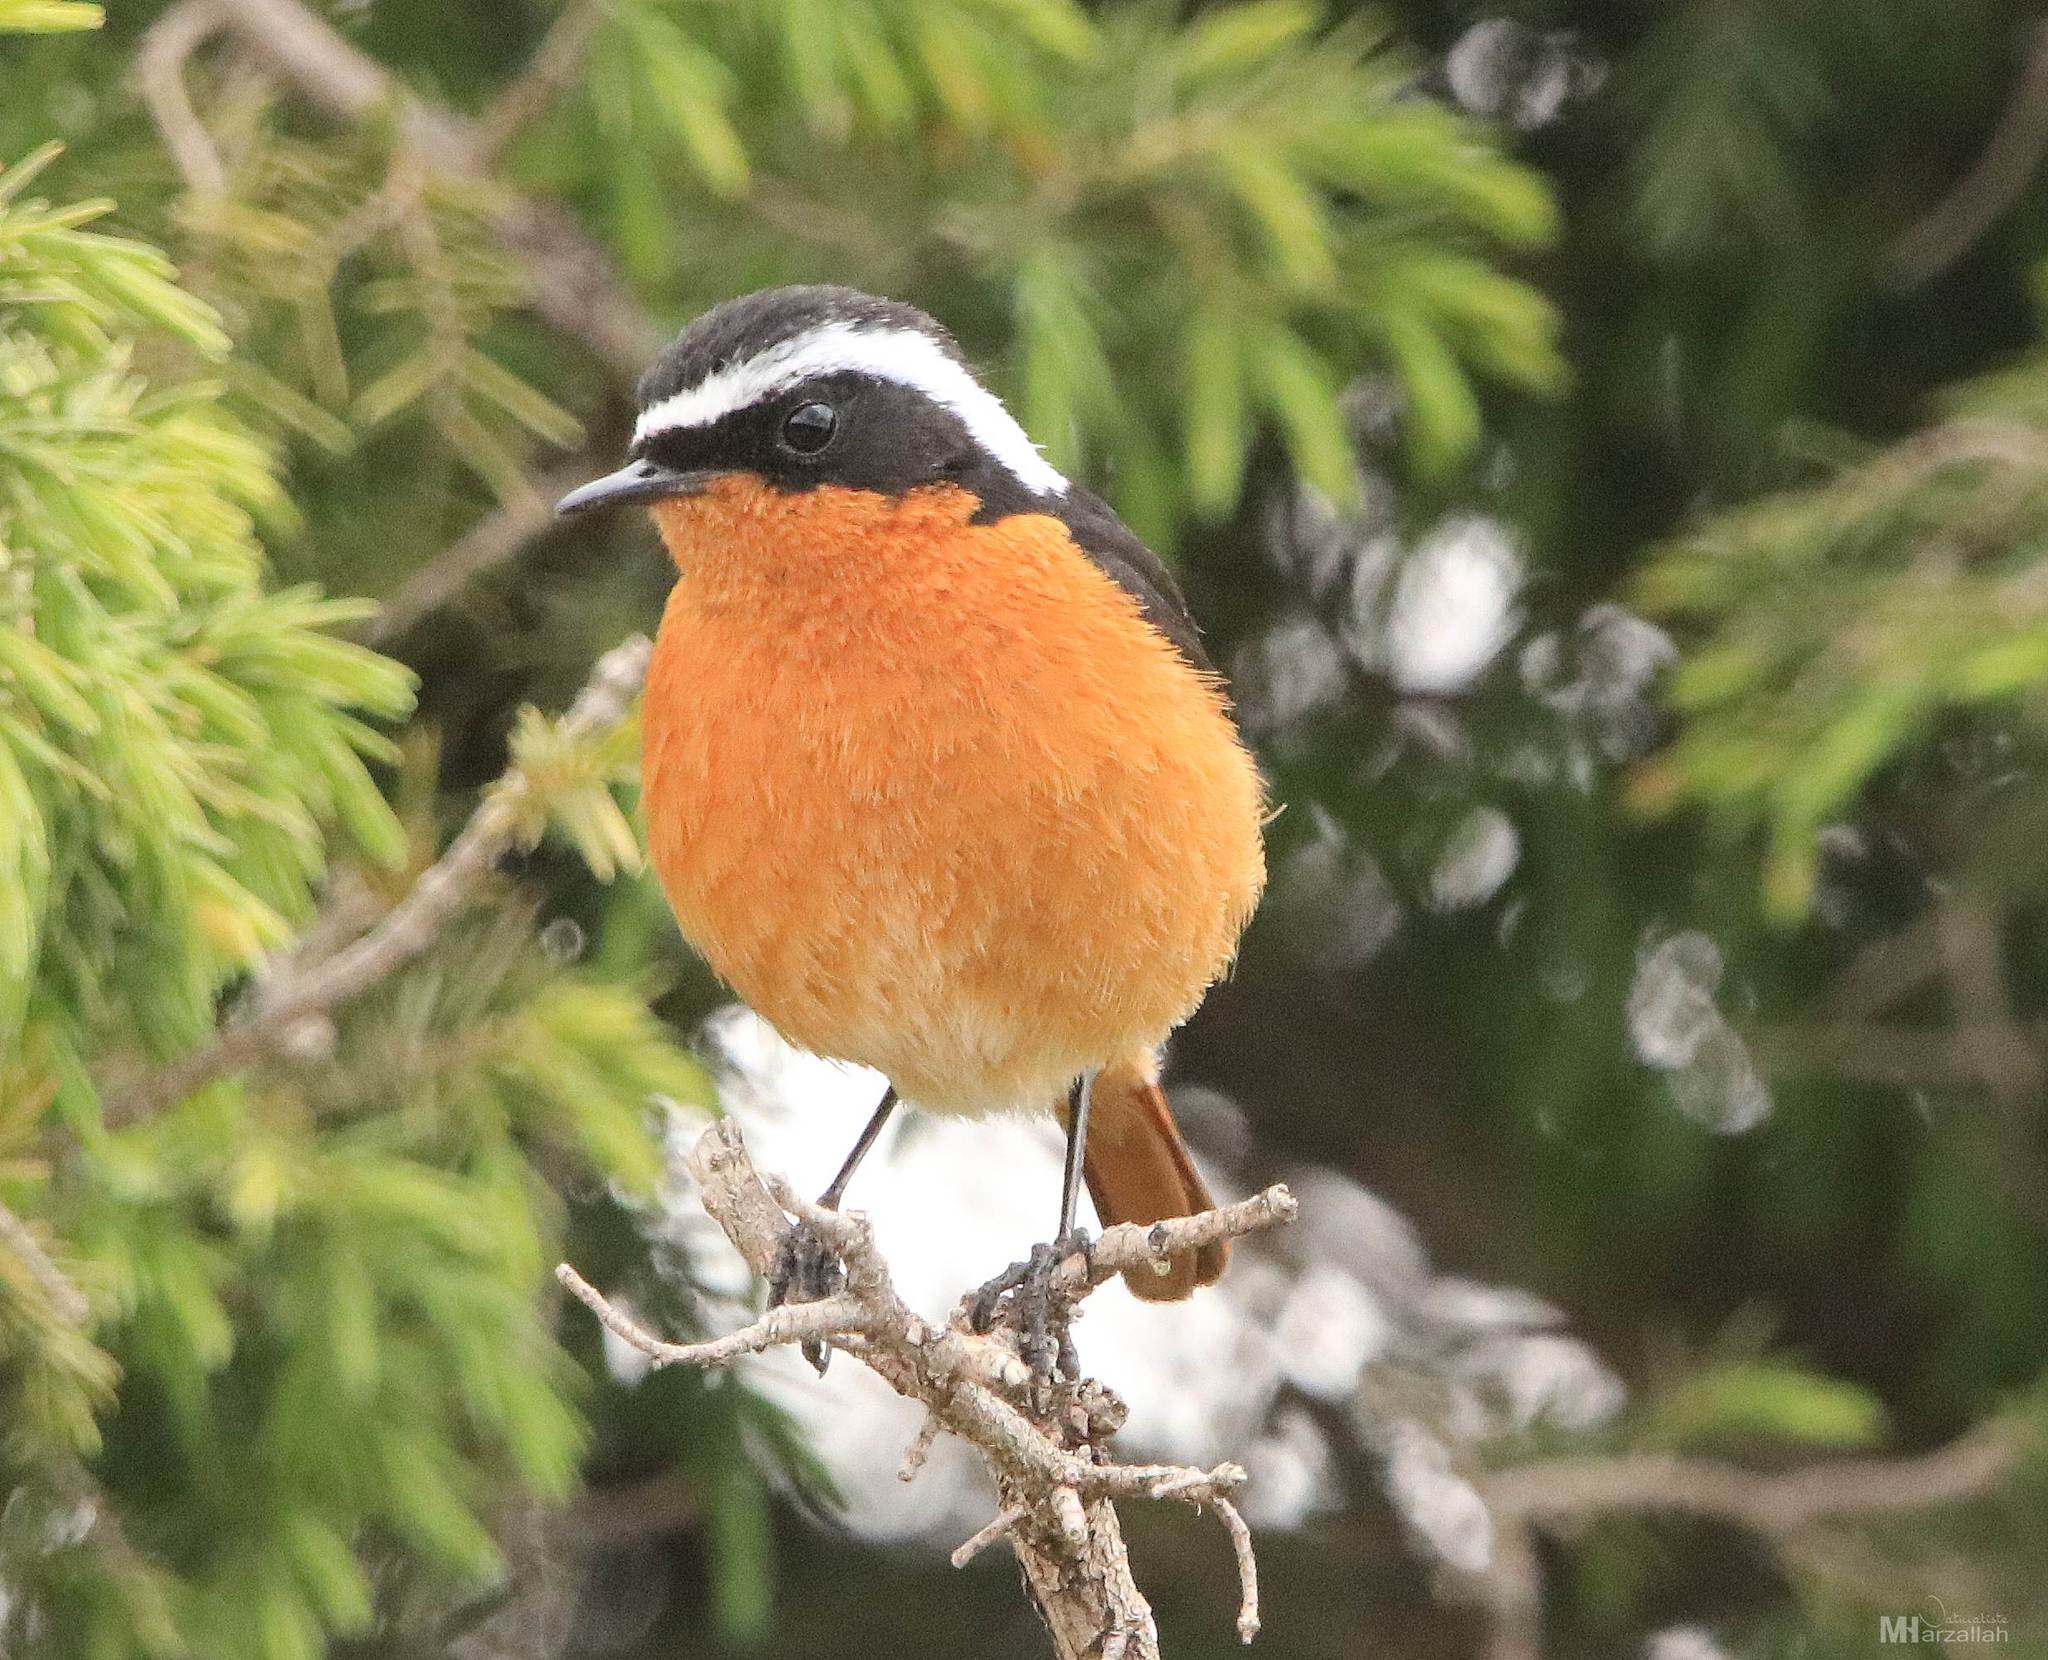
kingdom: Animalia
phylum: Chordata
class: Aves
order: Passeriformes
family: Muscicapidae
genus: Phoenicurus
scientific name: Phoenicurus moussieri
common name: Moussier's redstart
